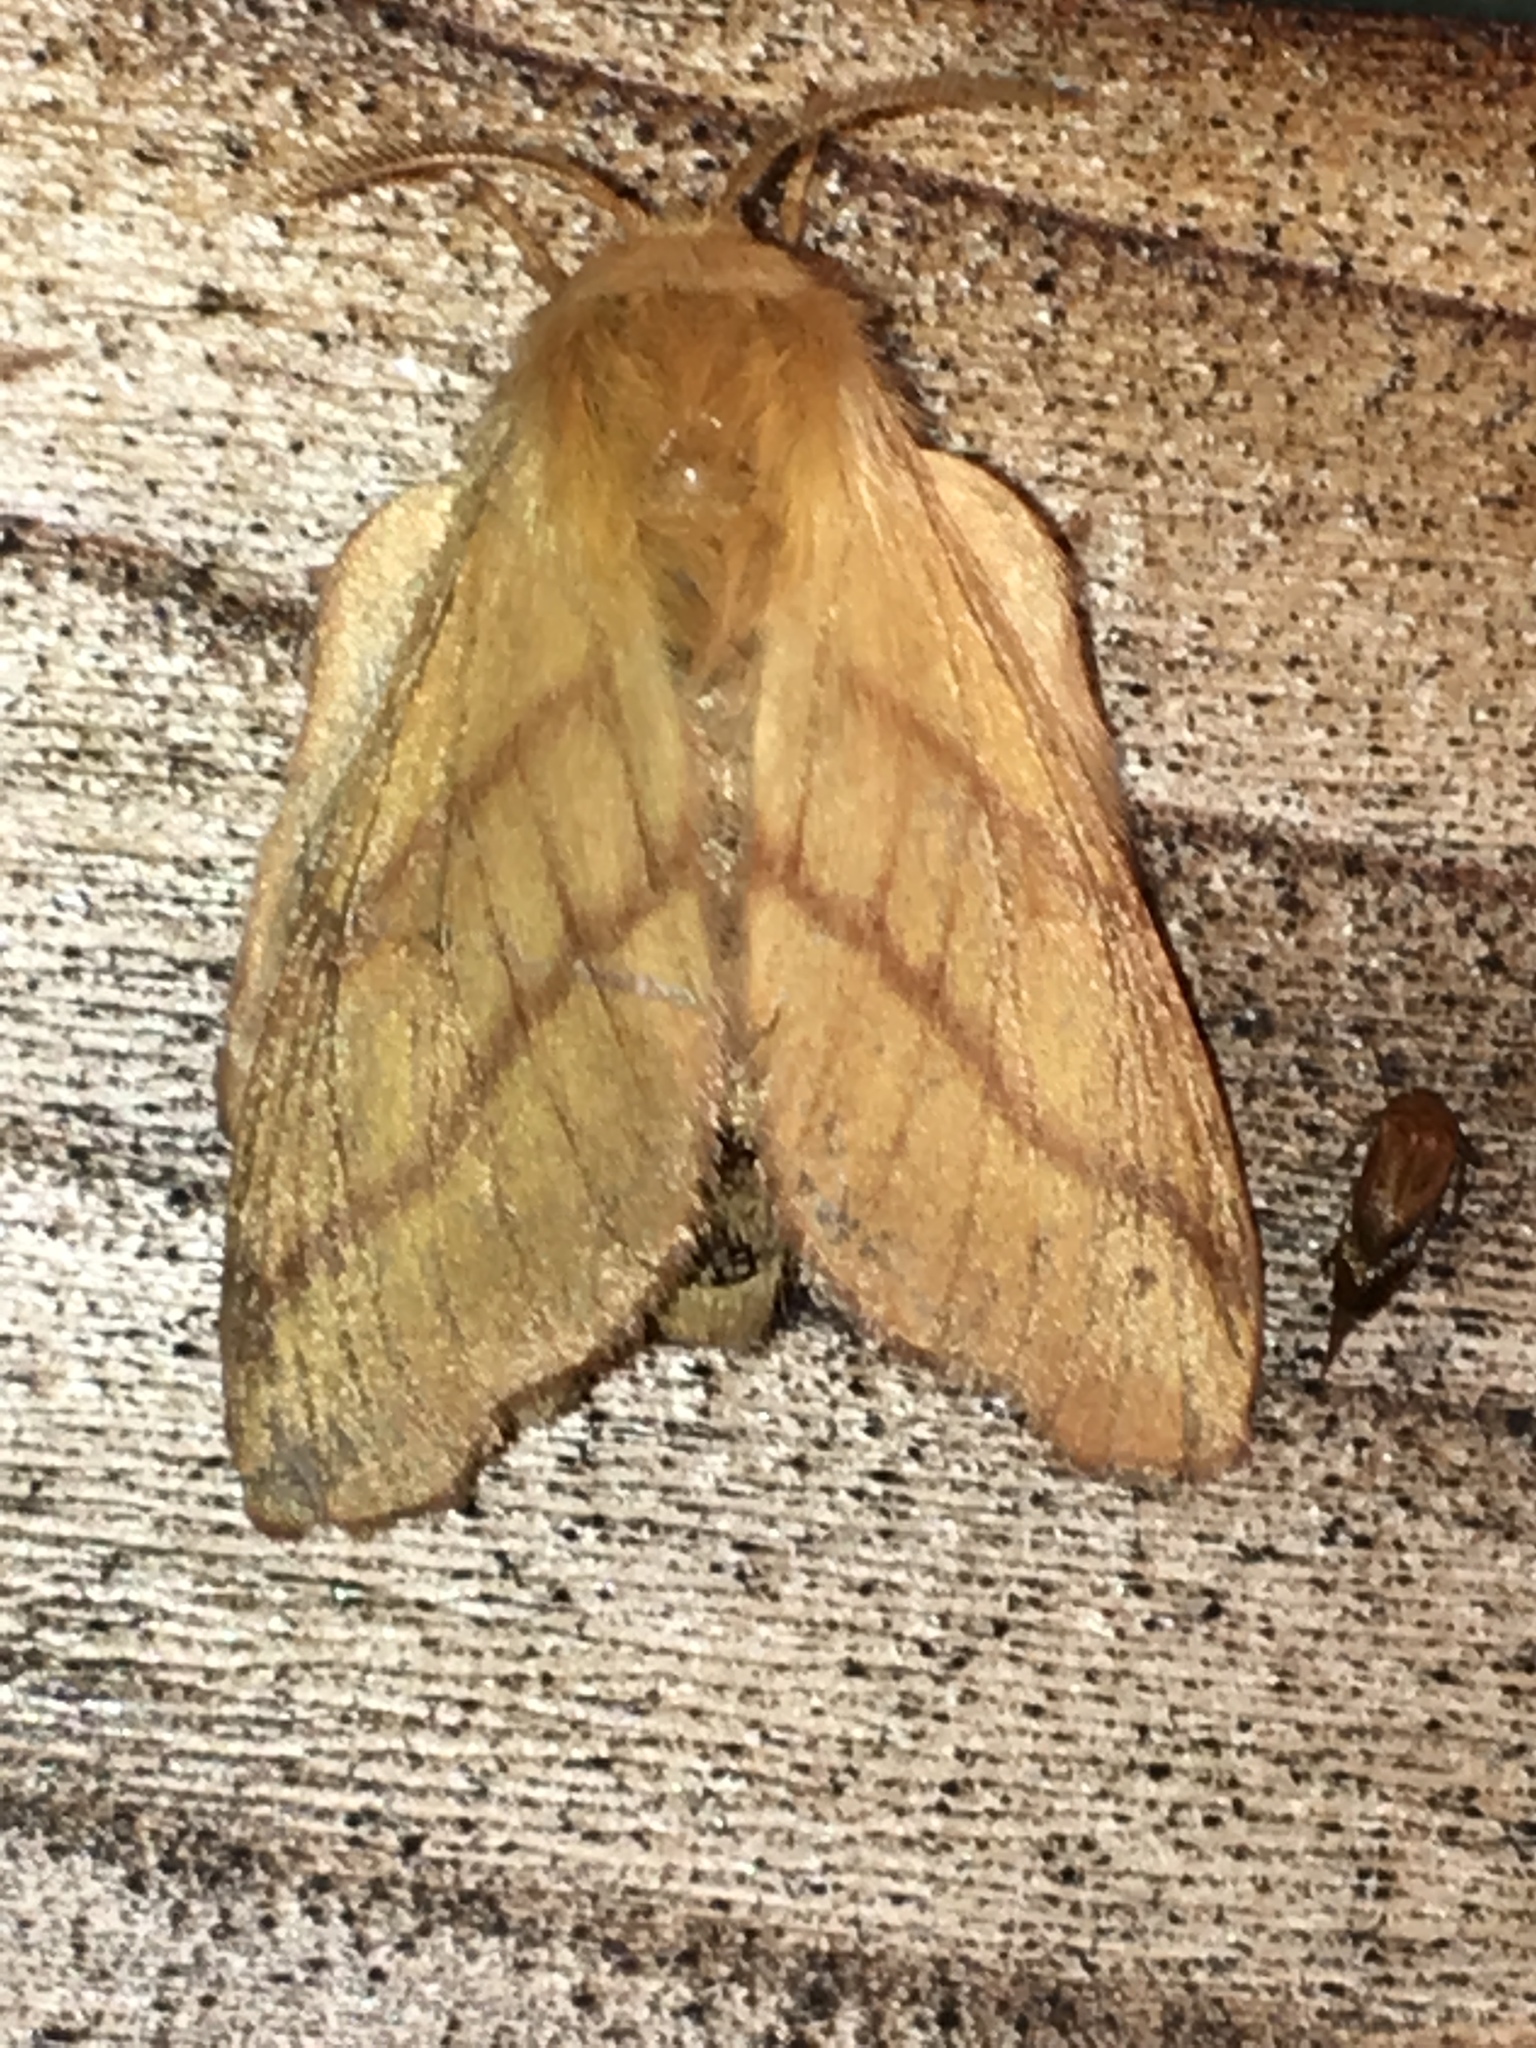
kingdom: Animalia
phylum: Arthropoda
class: Insecta
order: Lepidoptera
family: Lasiocampidae
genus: Malacosoma
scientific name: Malacosoma disstria
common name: Forest tent caterpillar
